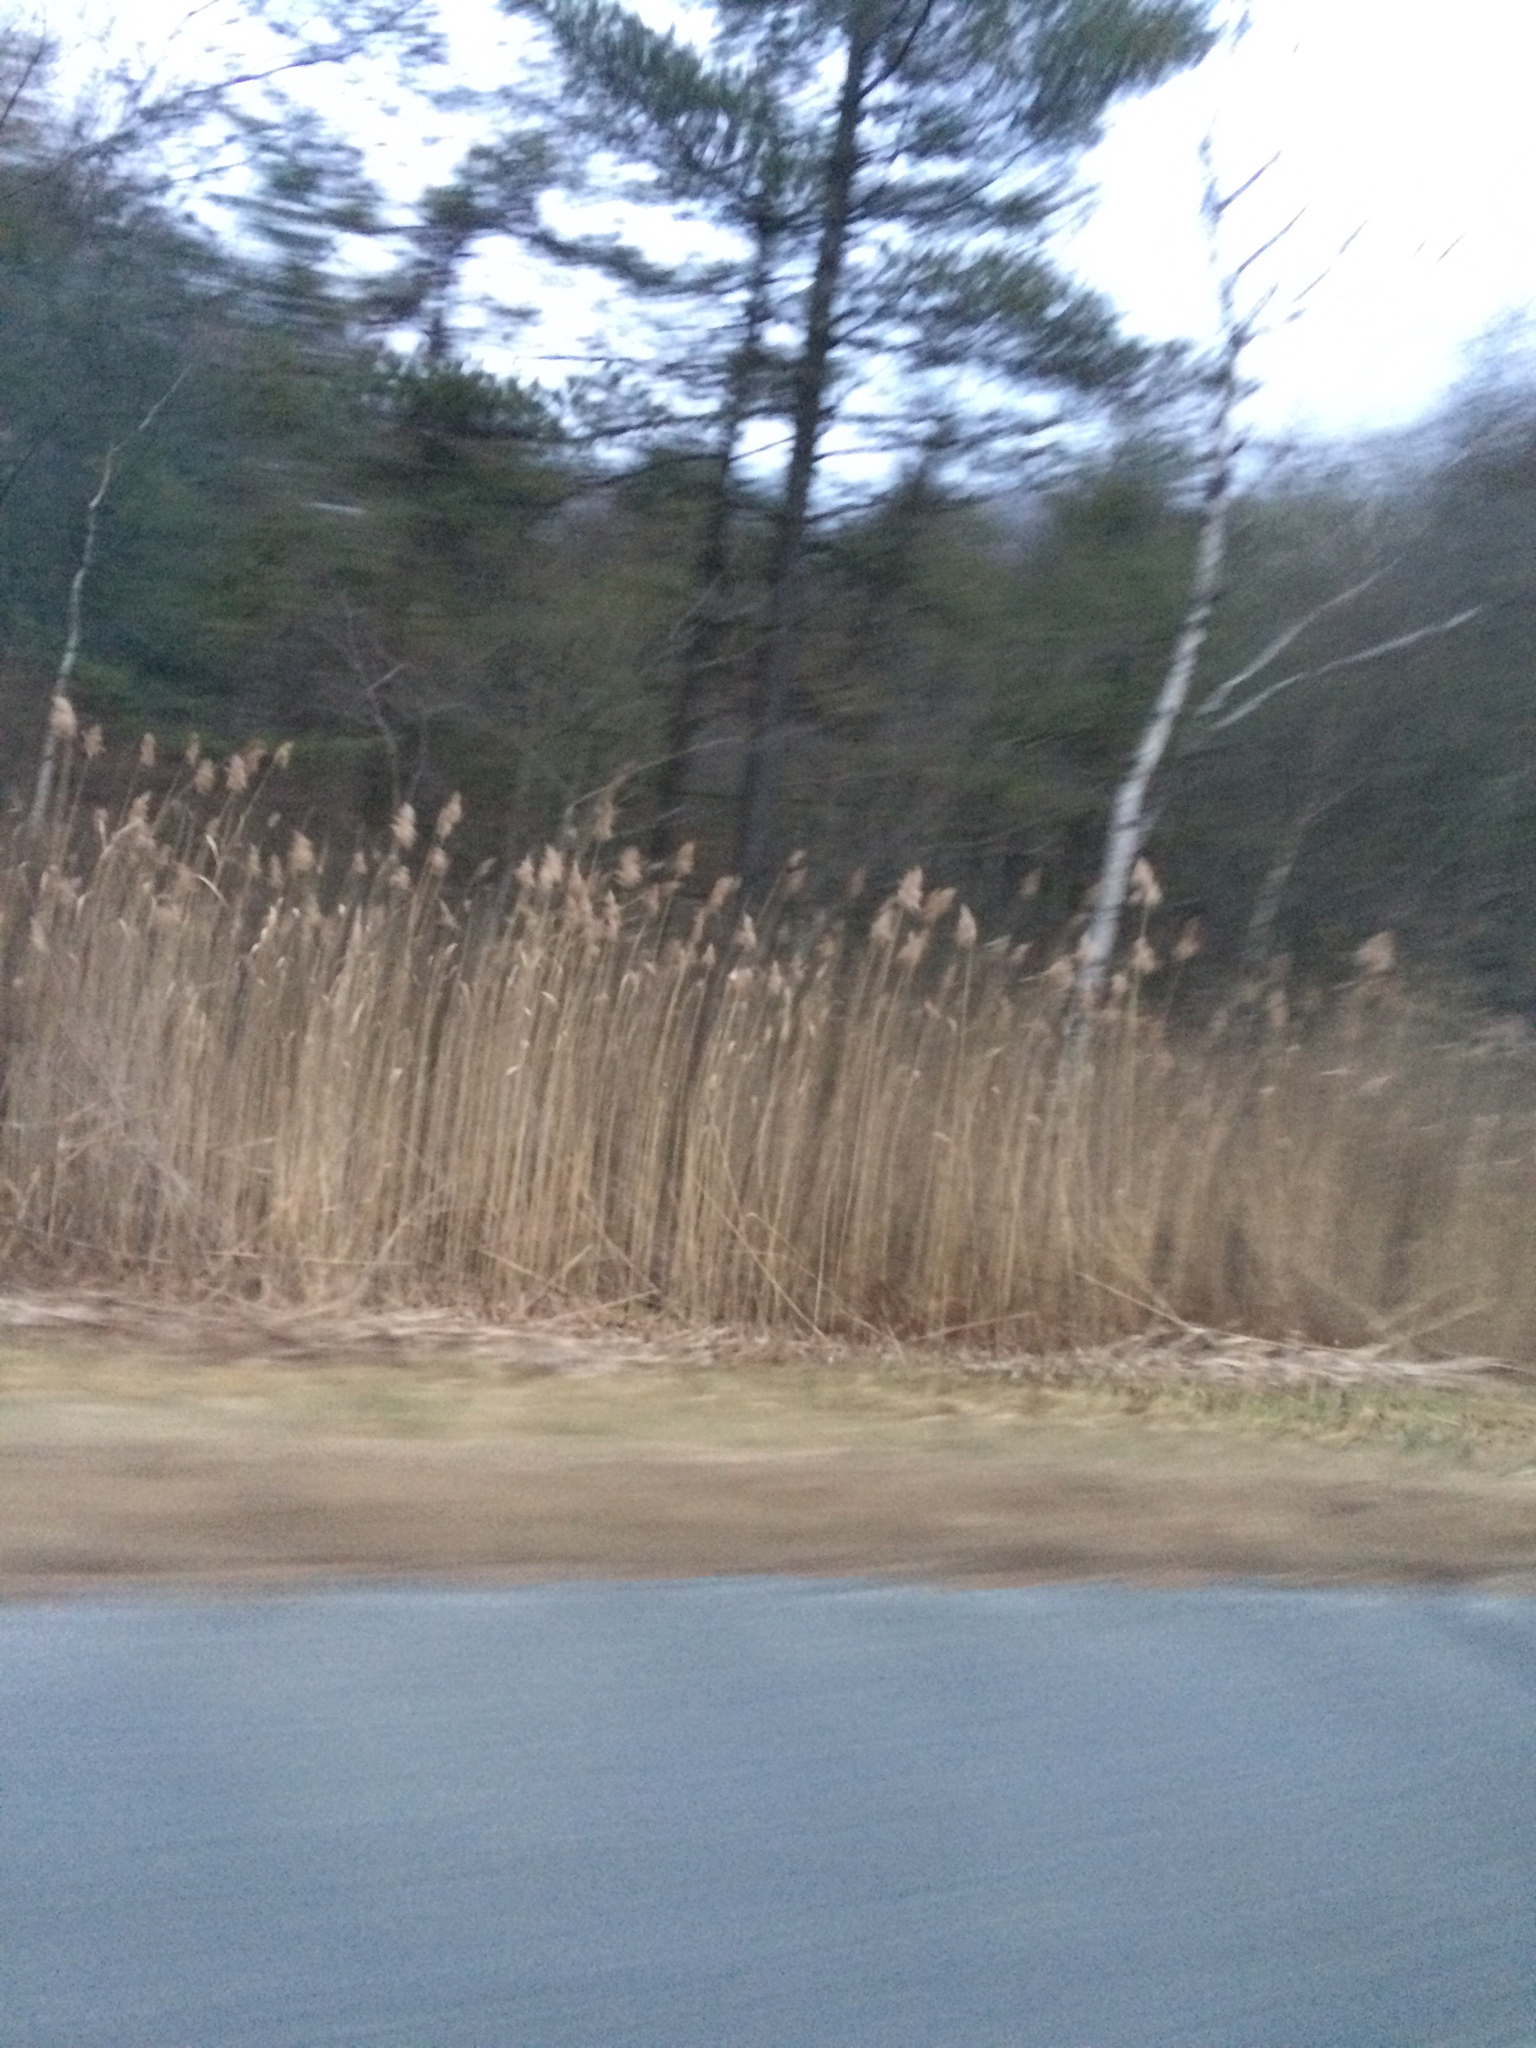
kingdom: Plantae
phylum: Tracheophyta
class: Liliopsida
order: Poales
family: Poaceae
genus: Phragmites
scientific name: Phragmites australis
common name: Common reed
